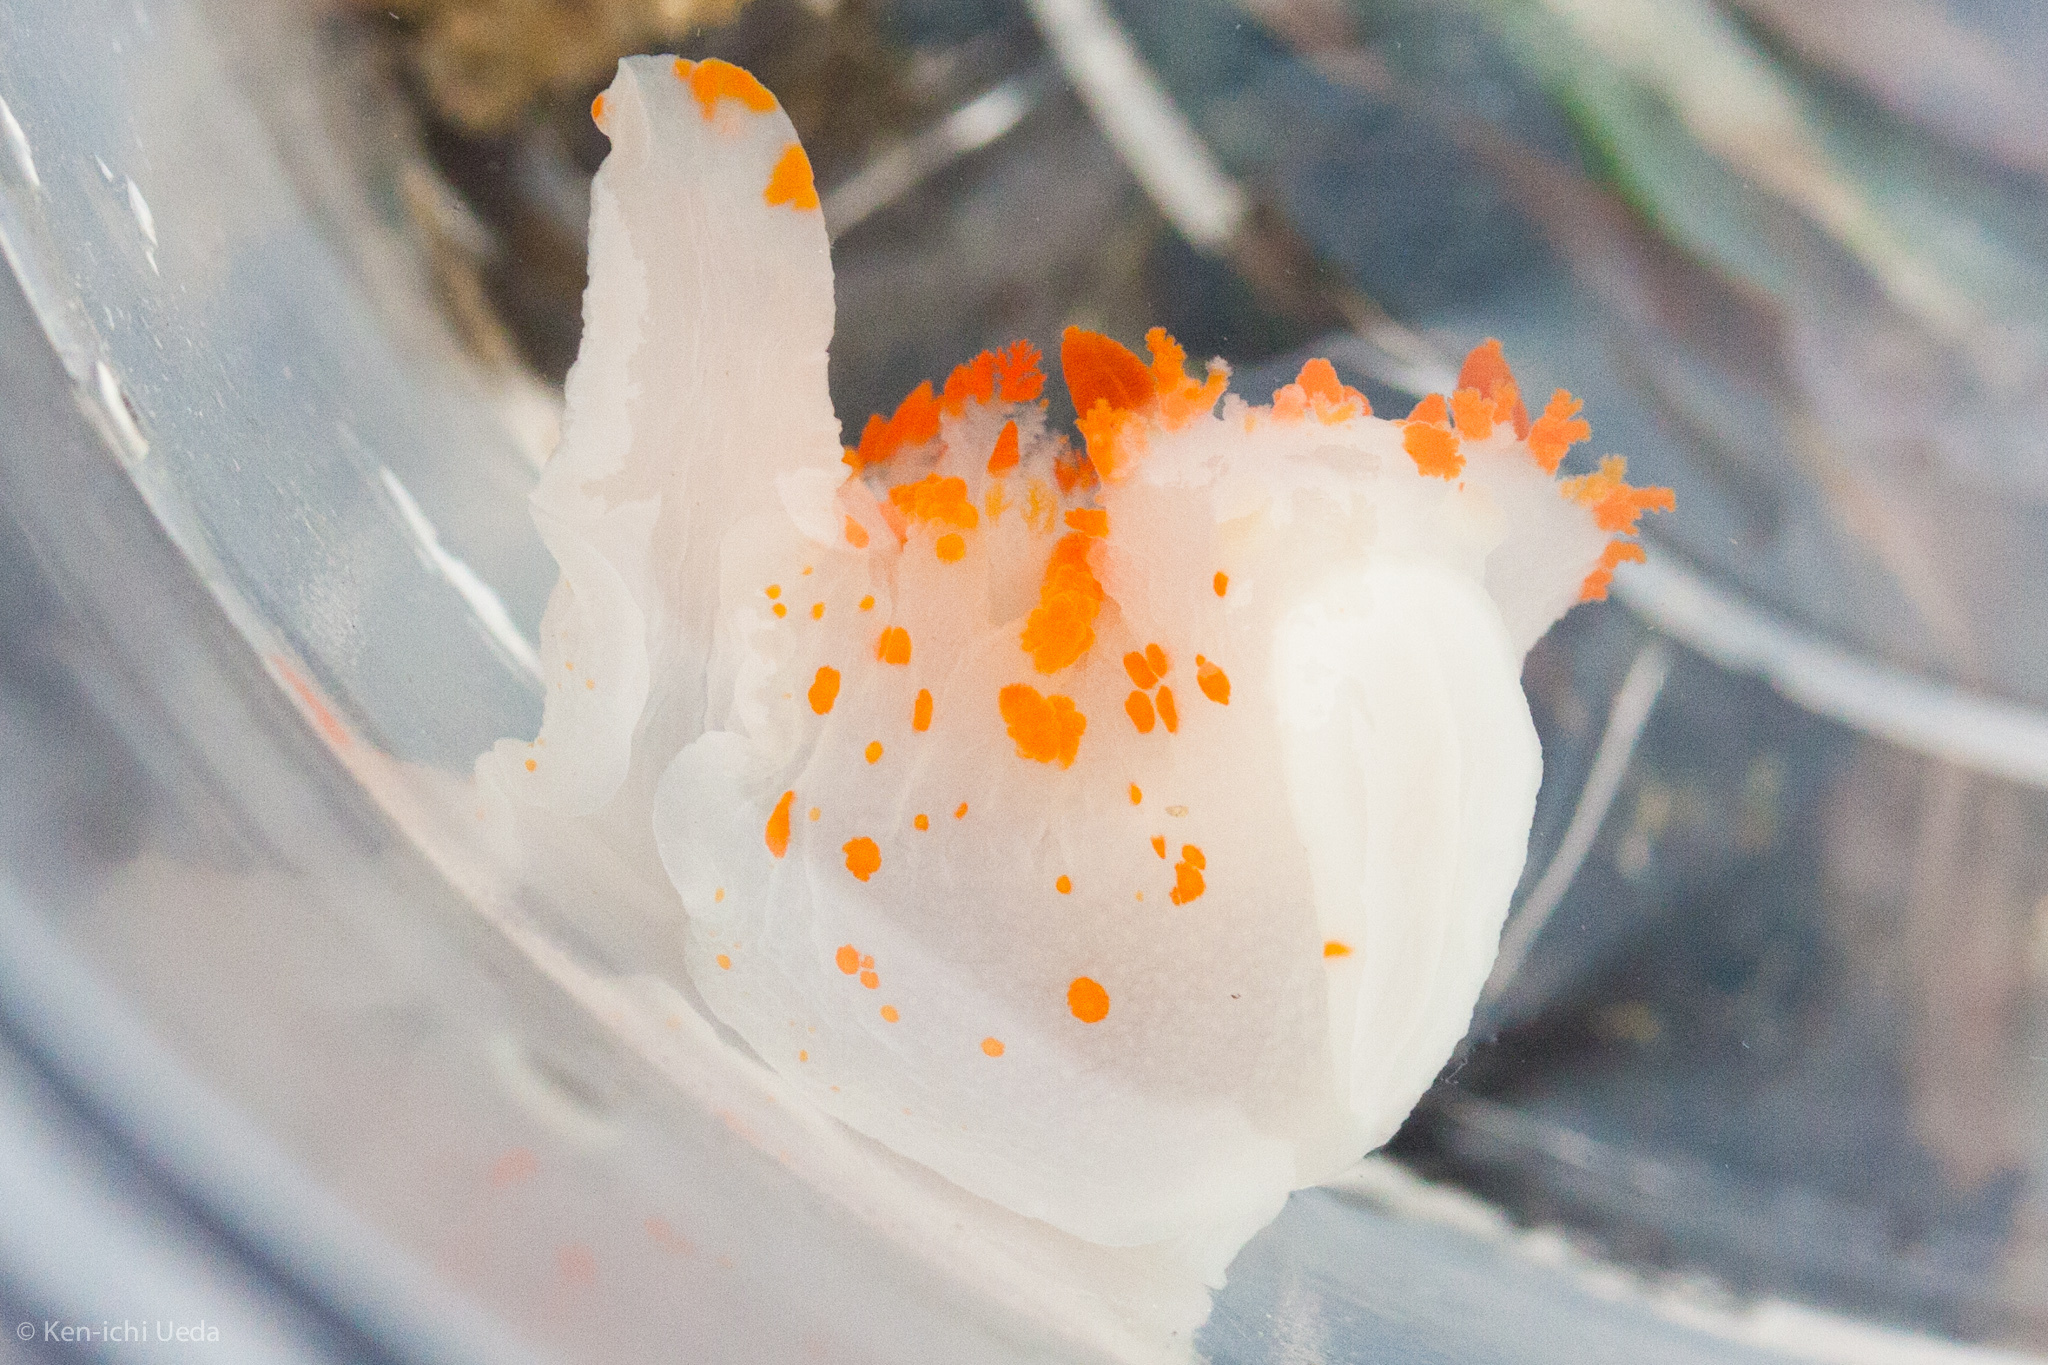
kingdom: Animalia
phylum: Mollusca
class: Gastropoda
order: Nudibranchia
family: Polyceridae
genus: Triopha
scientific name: Triopha catalinae
